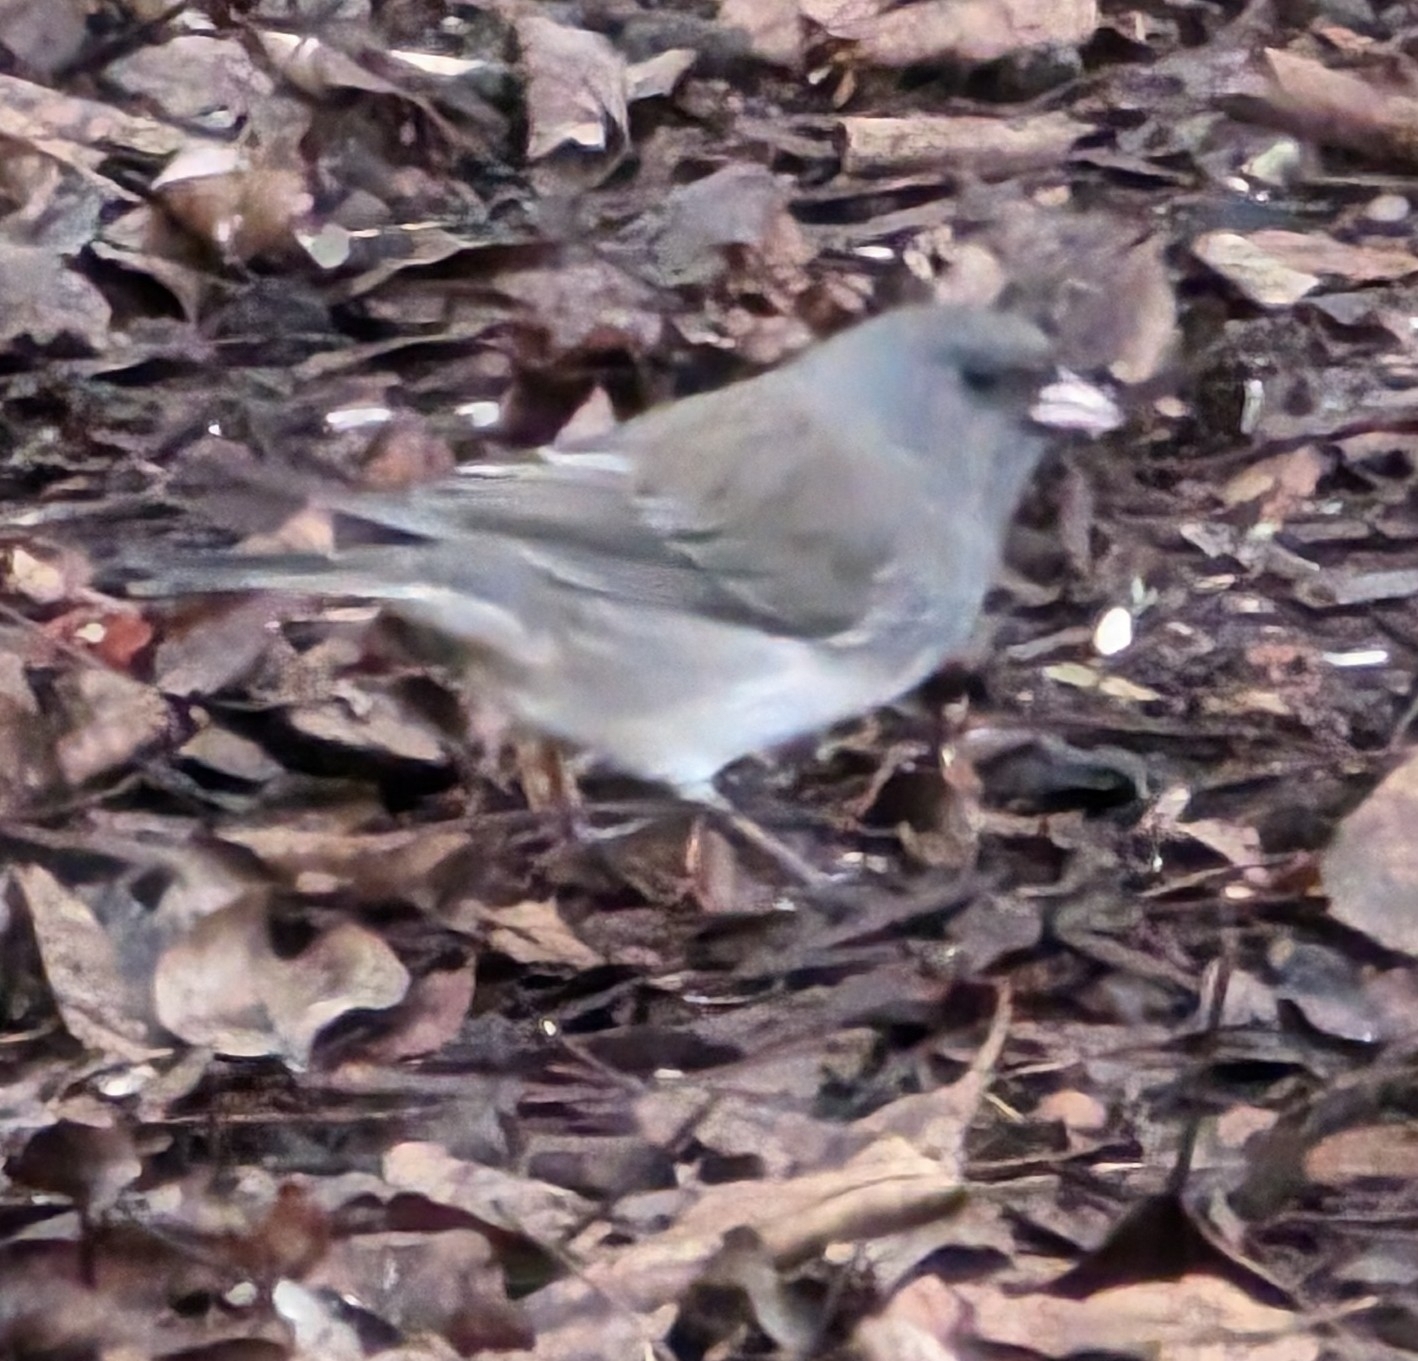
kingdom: Animalia
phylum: Chordata
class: Aves
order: Passeriformes
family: Passerellidae
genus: Junco
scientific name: Junco hyemalis
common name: Dark-eyed junco
